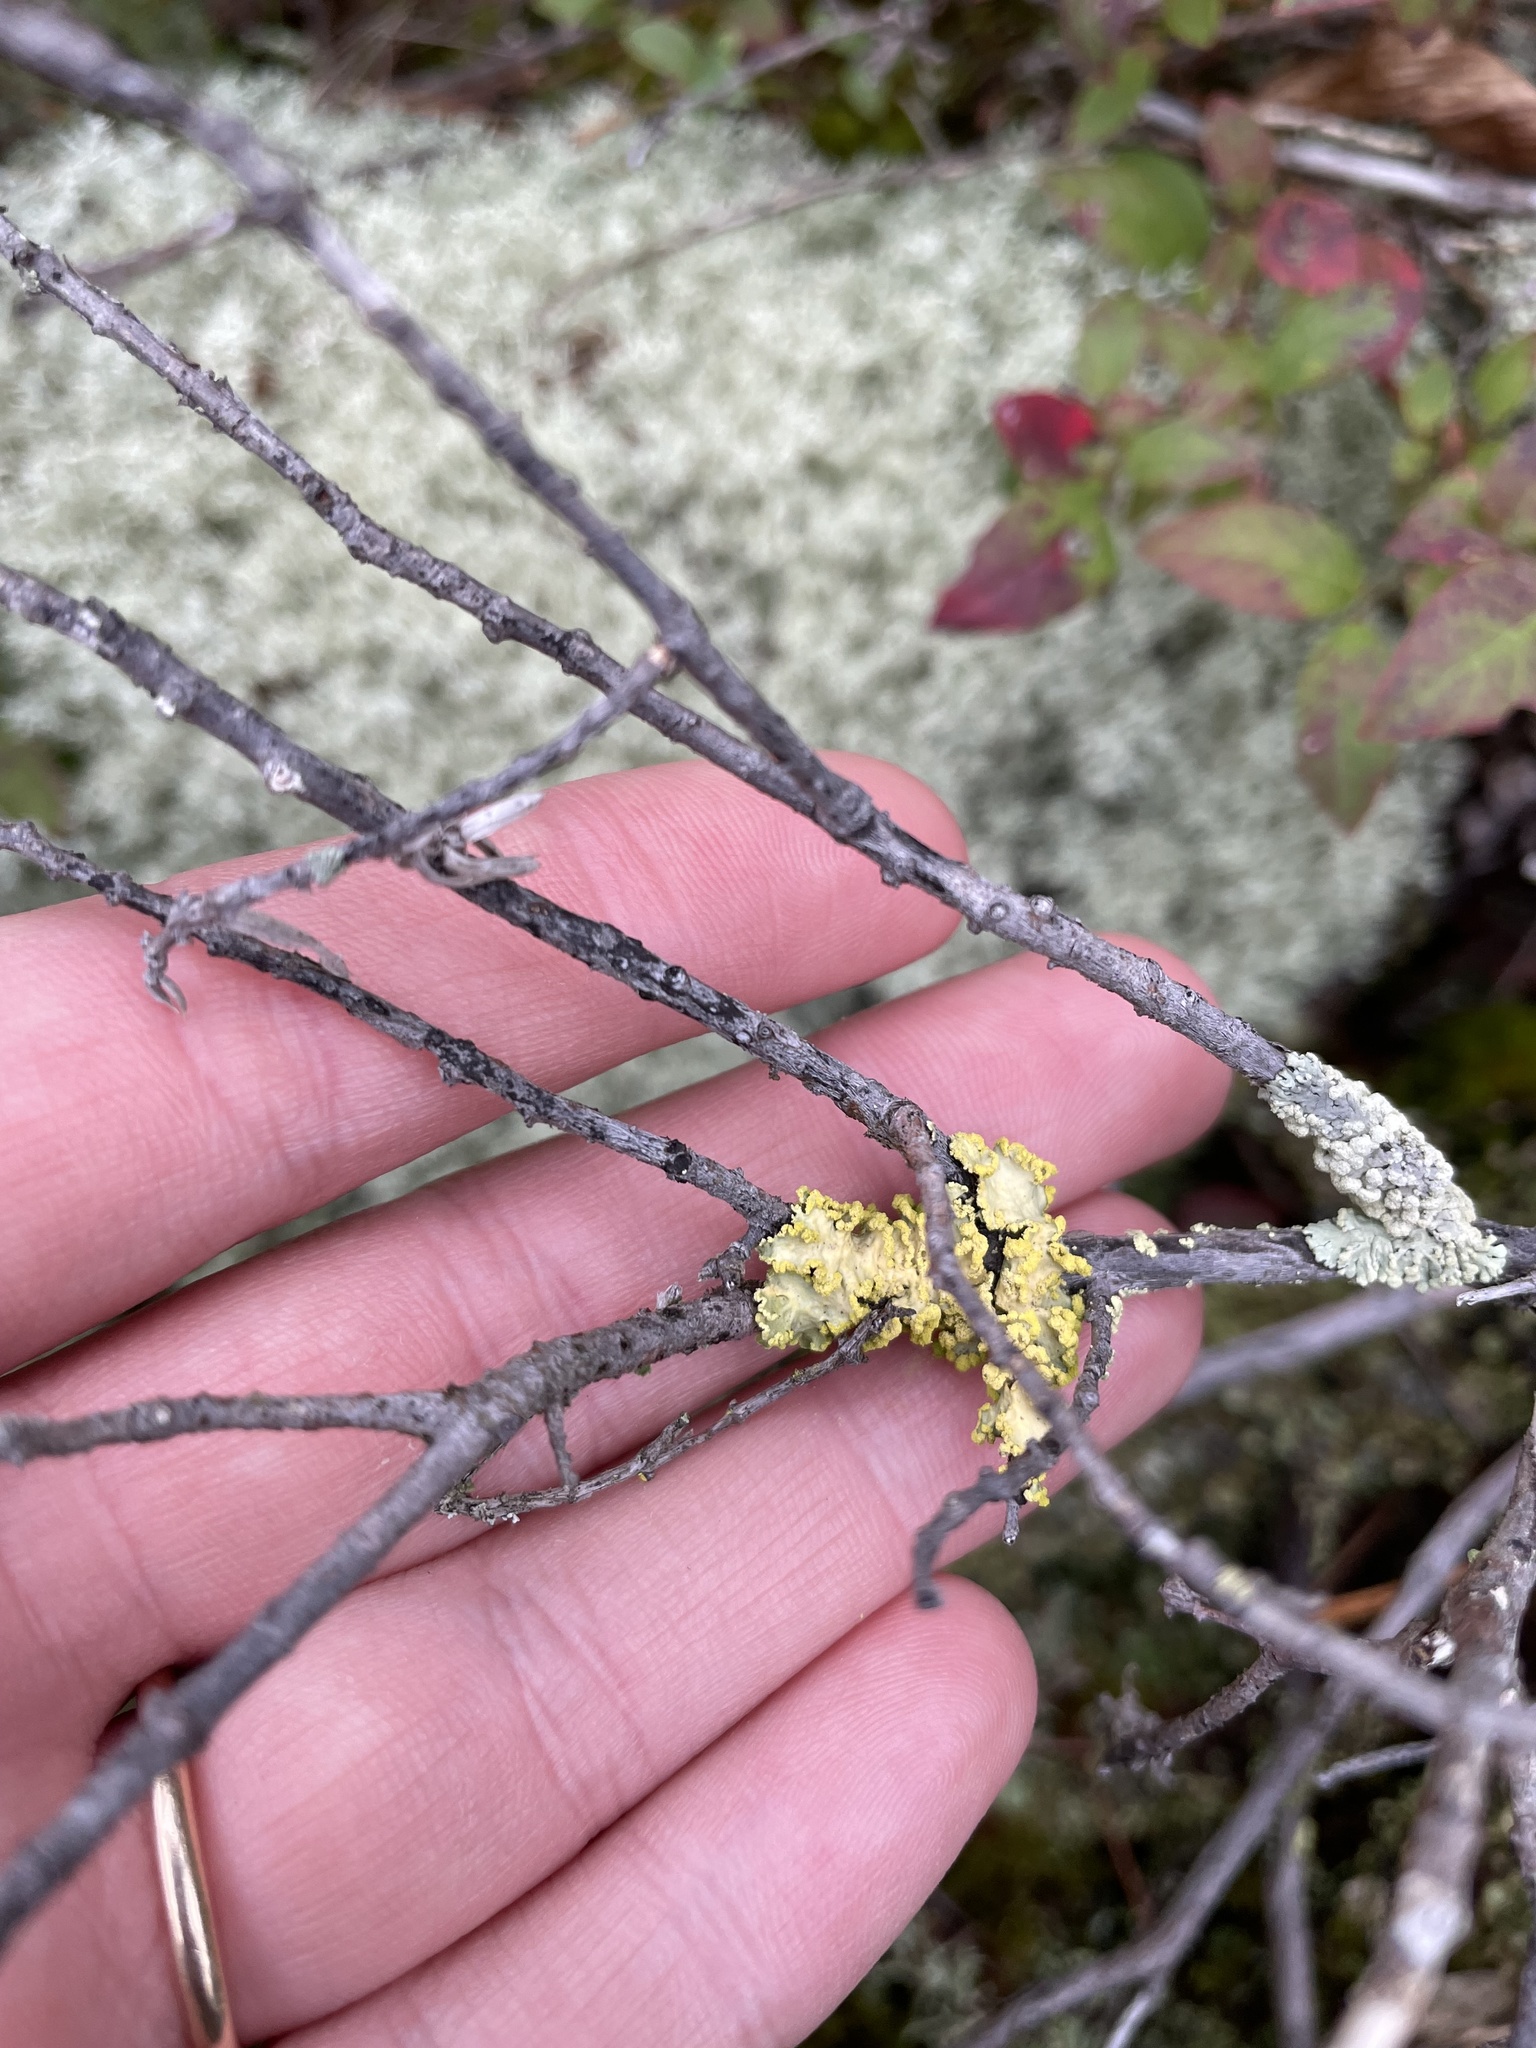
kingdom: Fungi
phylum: Ascomycota
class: Lecanoromycetes
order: Lecanorales
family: Parmeliaceae
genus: Vulpicida
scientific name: Vulpicida pinastri
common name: Powdered sunshine lichen
